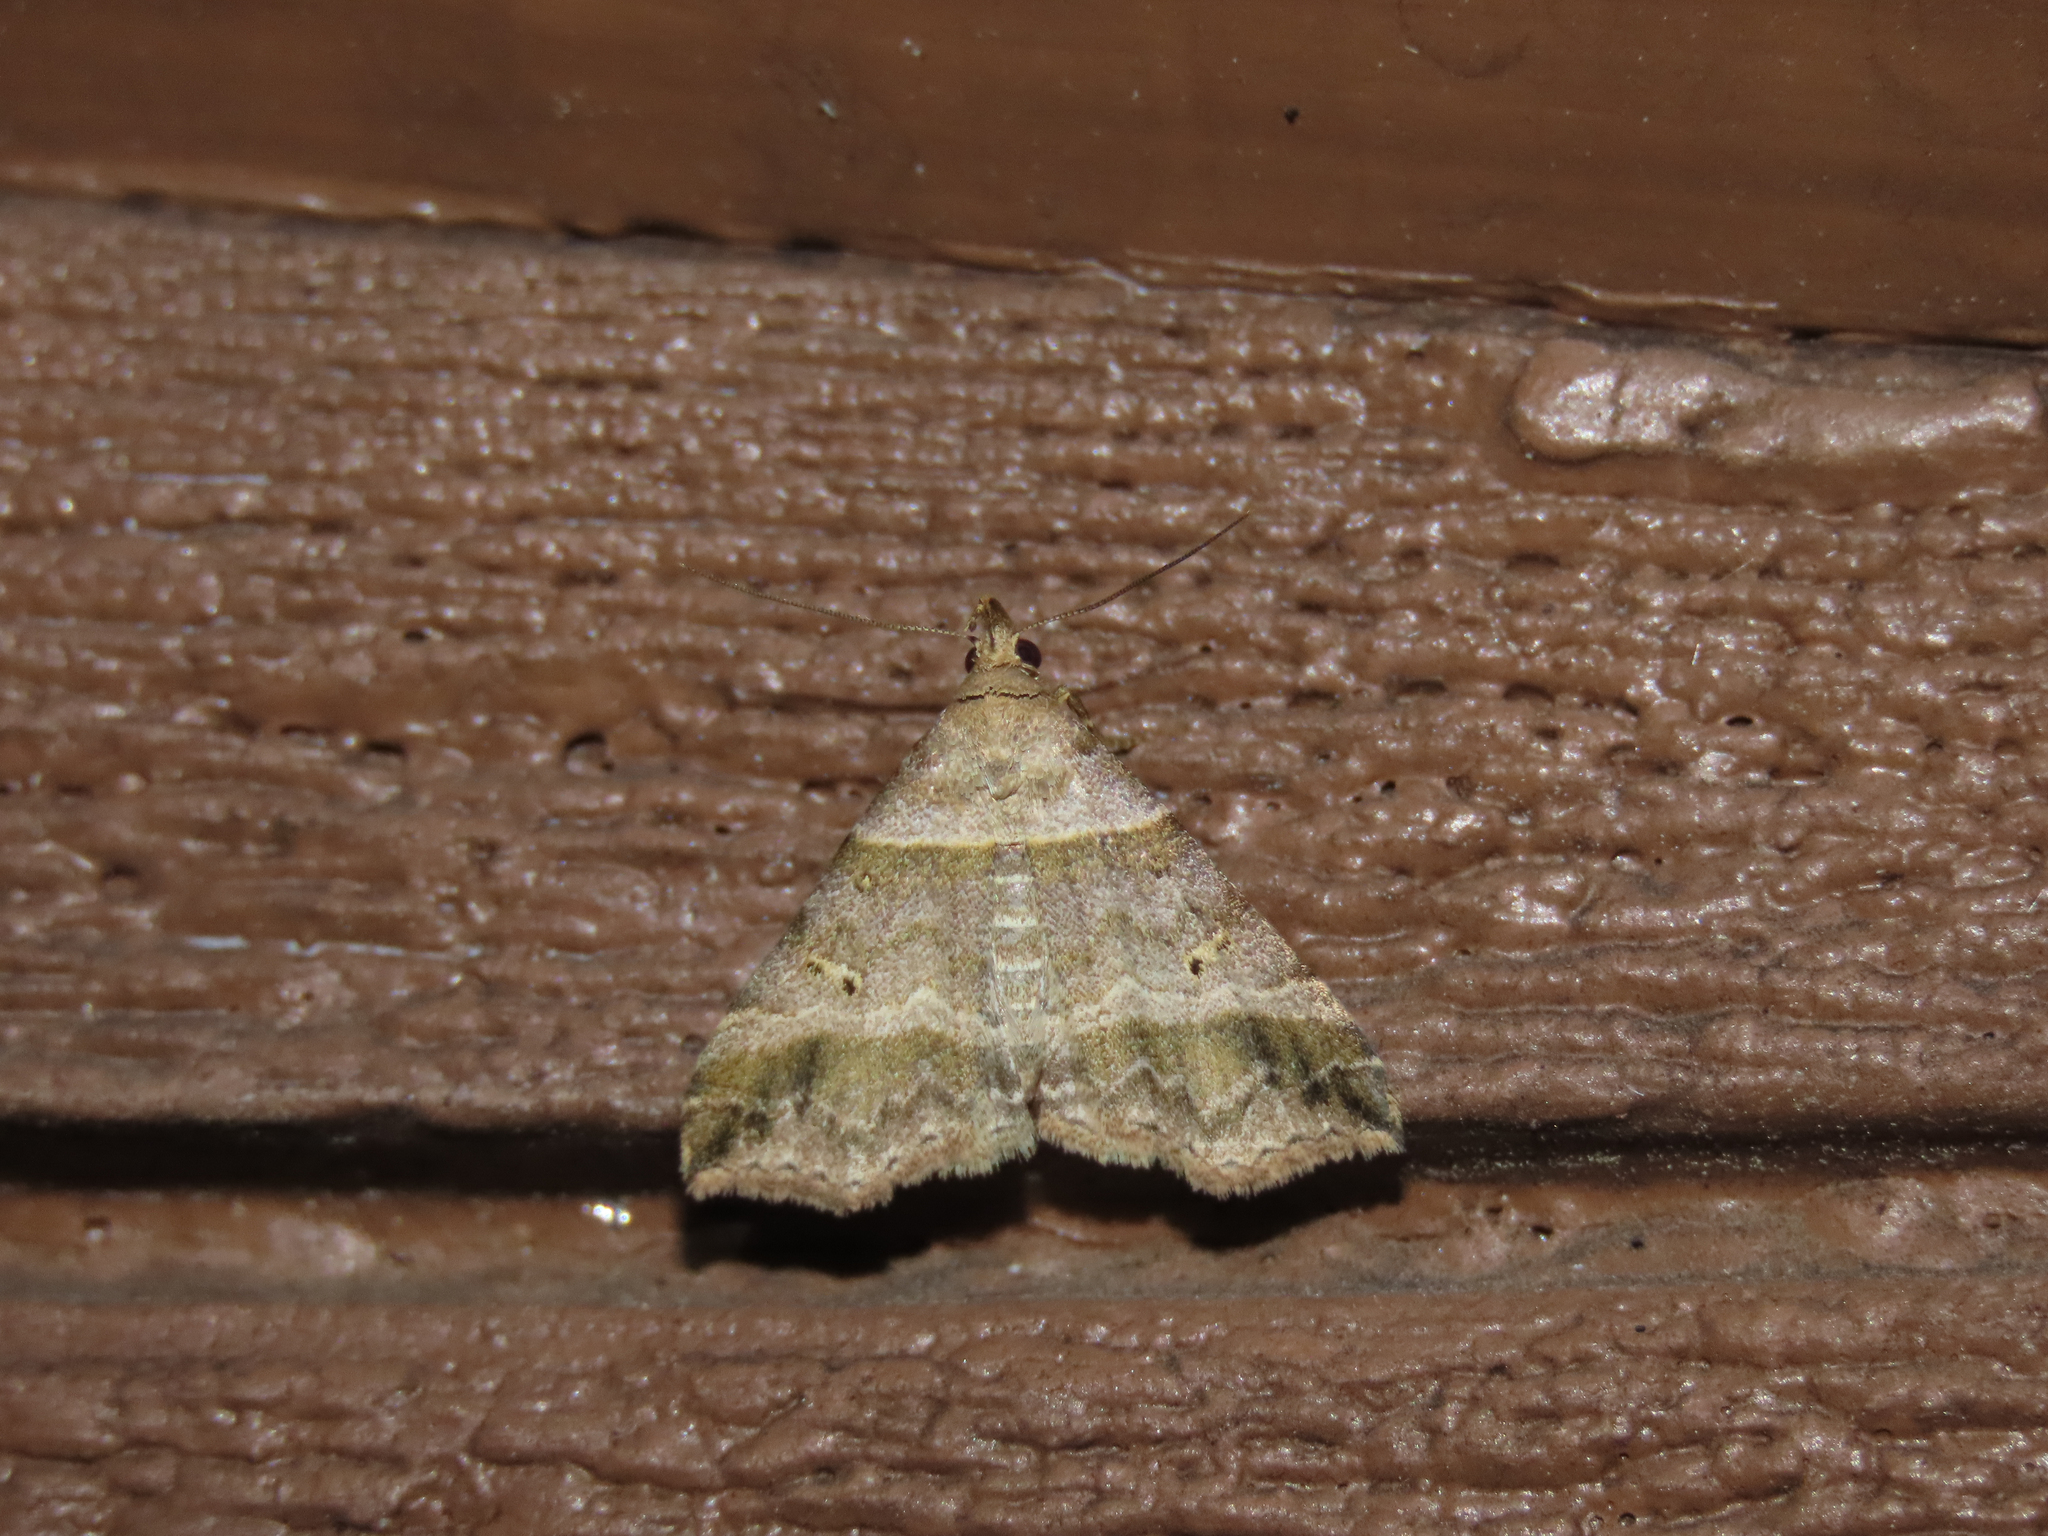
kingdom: Animalia
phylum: Arthropoda
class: Insecta
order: Lepidoptera
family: Erebidae
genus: Phaeolita
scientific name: Phaeolita pyramusalis
